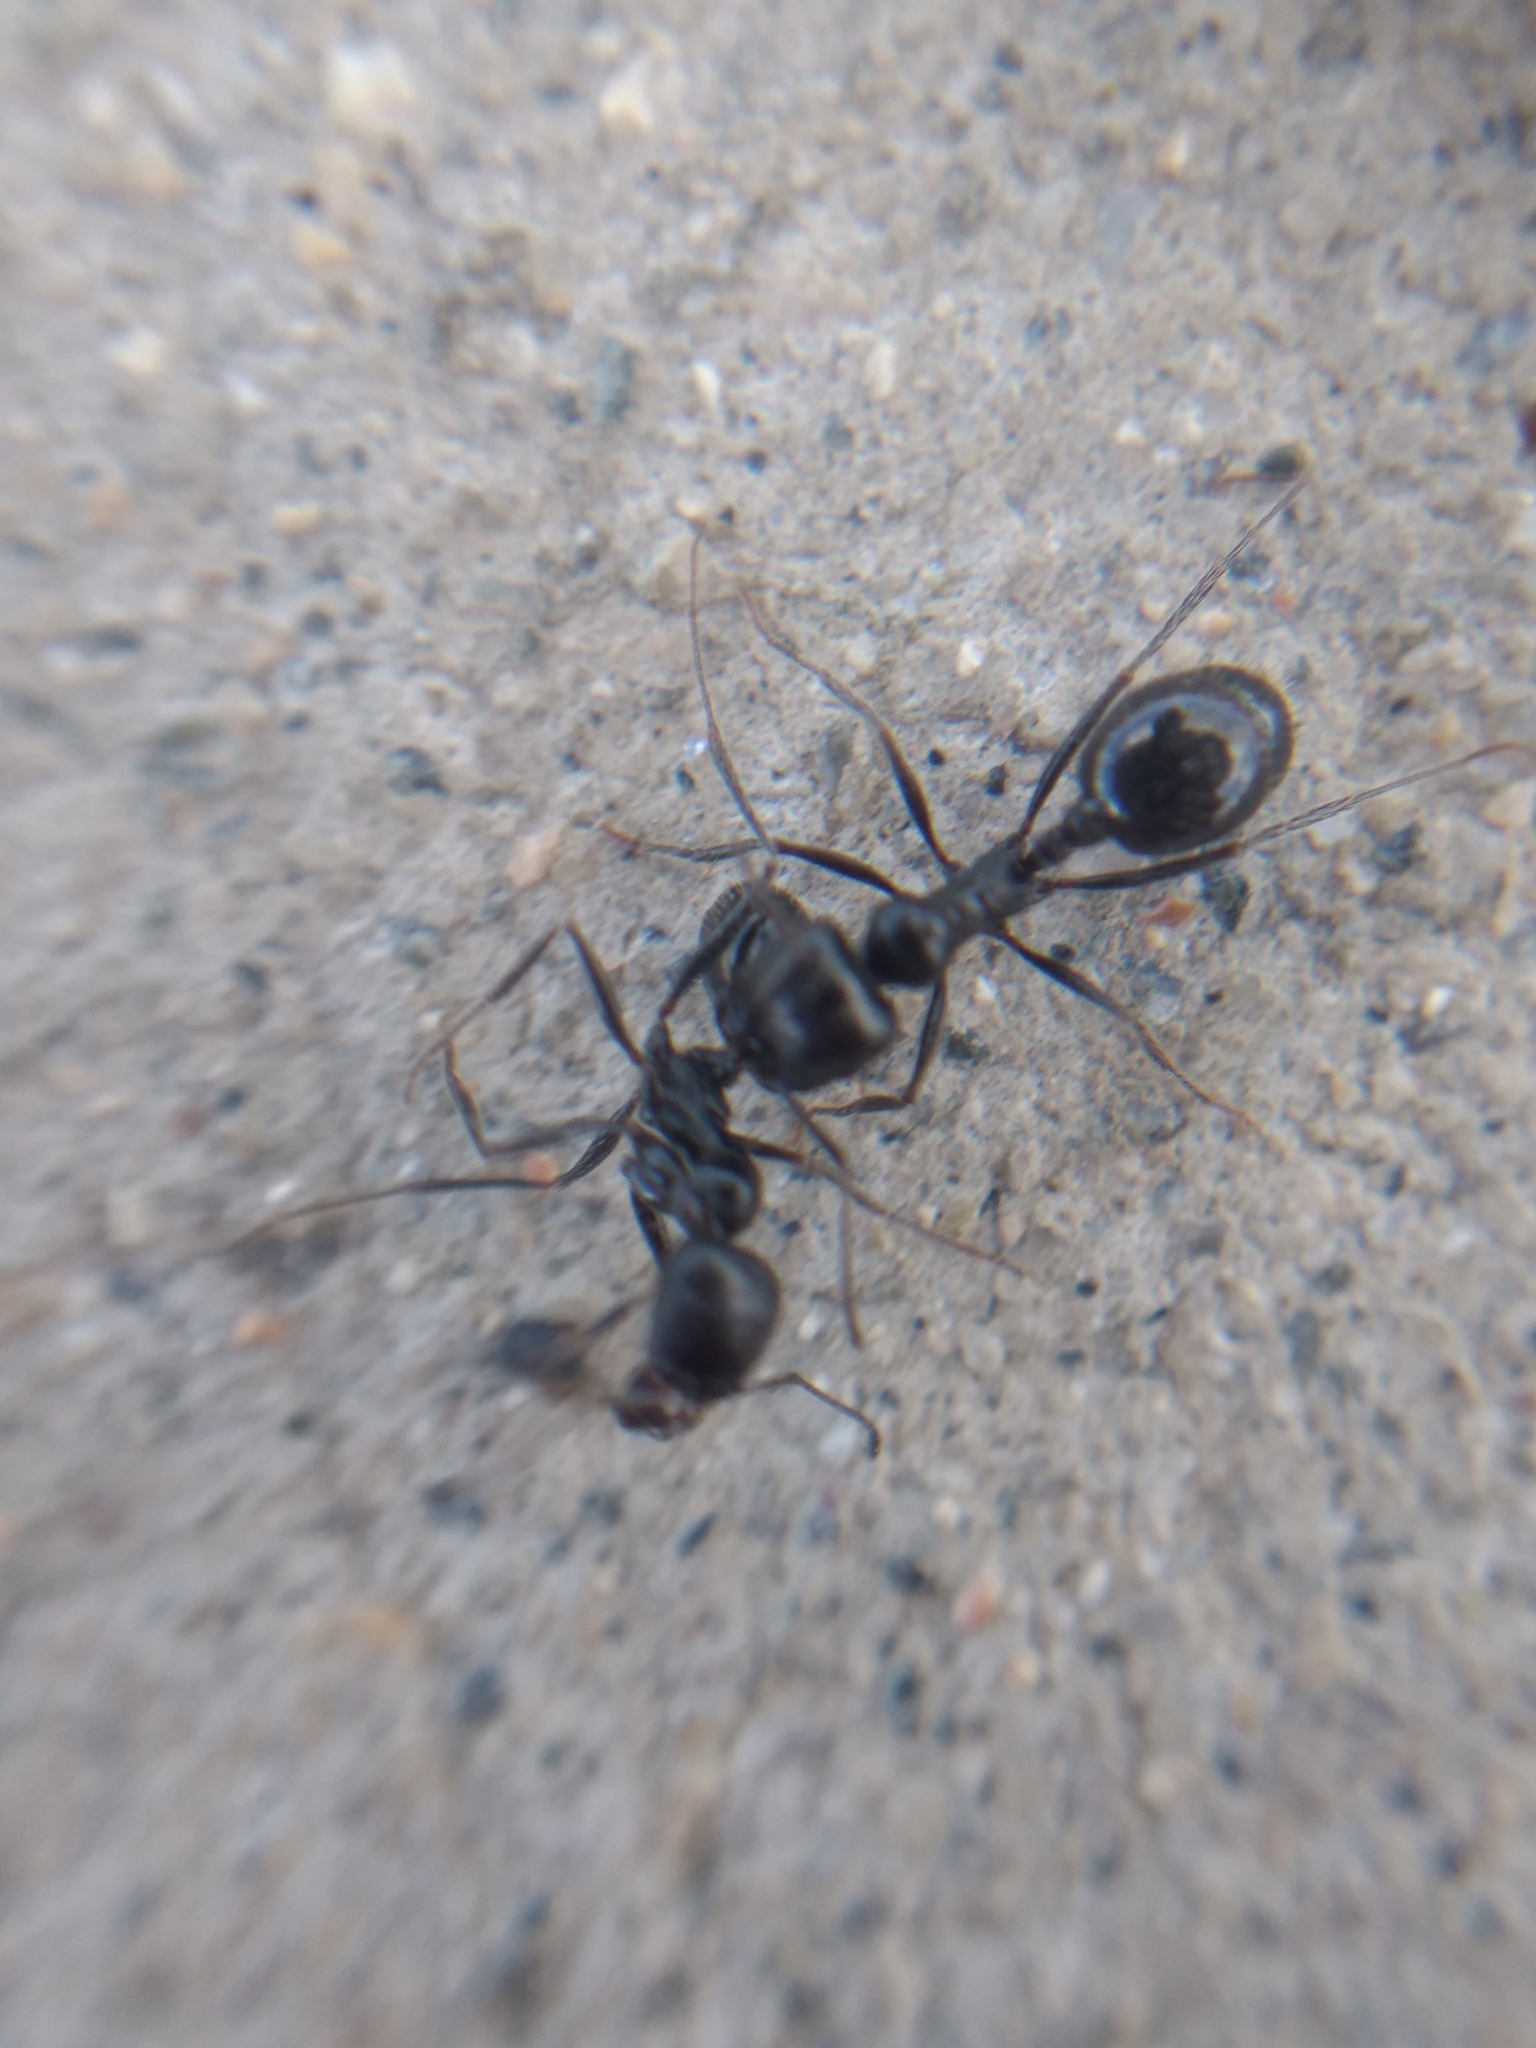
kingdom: Animalia
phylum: Arthropoda
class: Insecta
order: Hymenoptera
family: Formicidae
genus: Messor
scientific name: Messor pergandei
